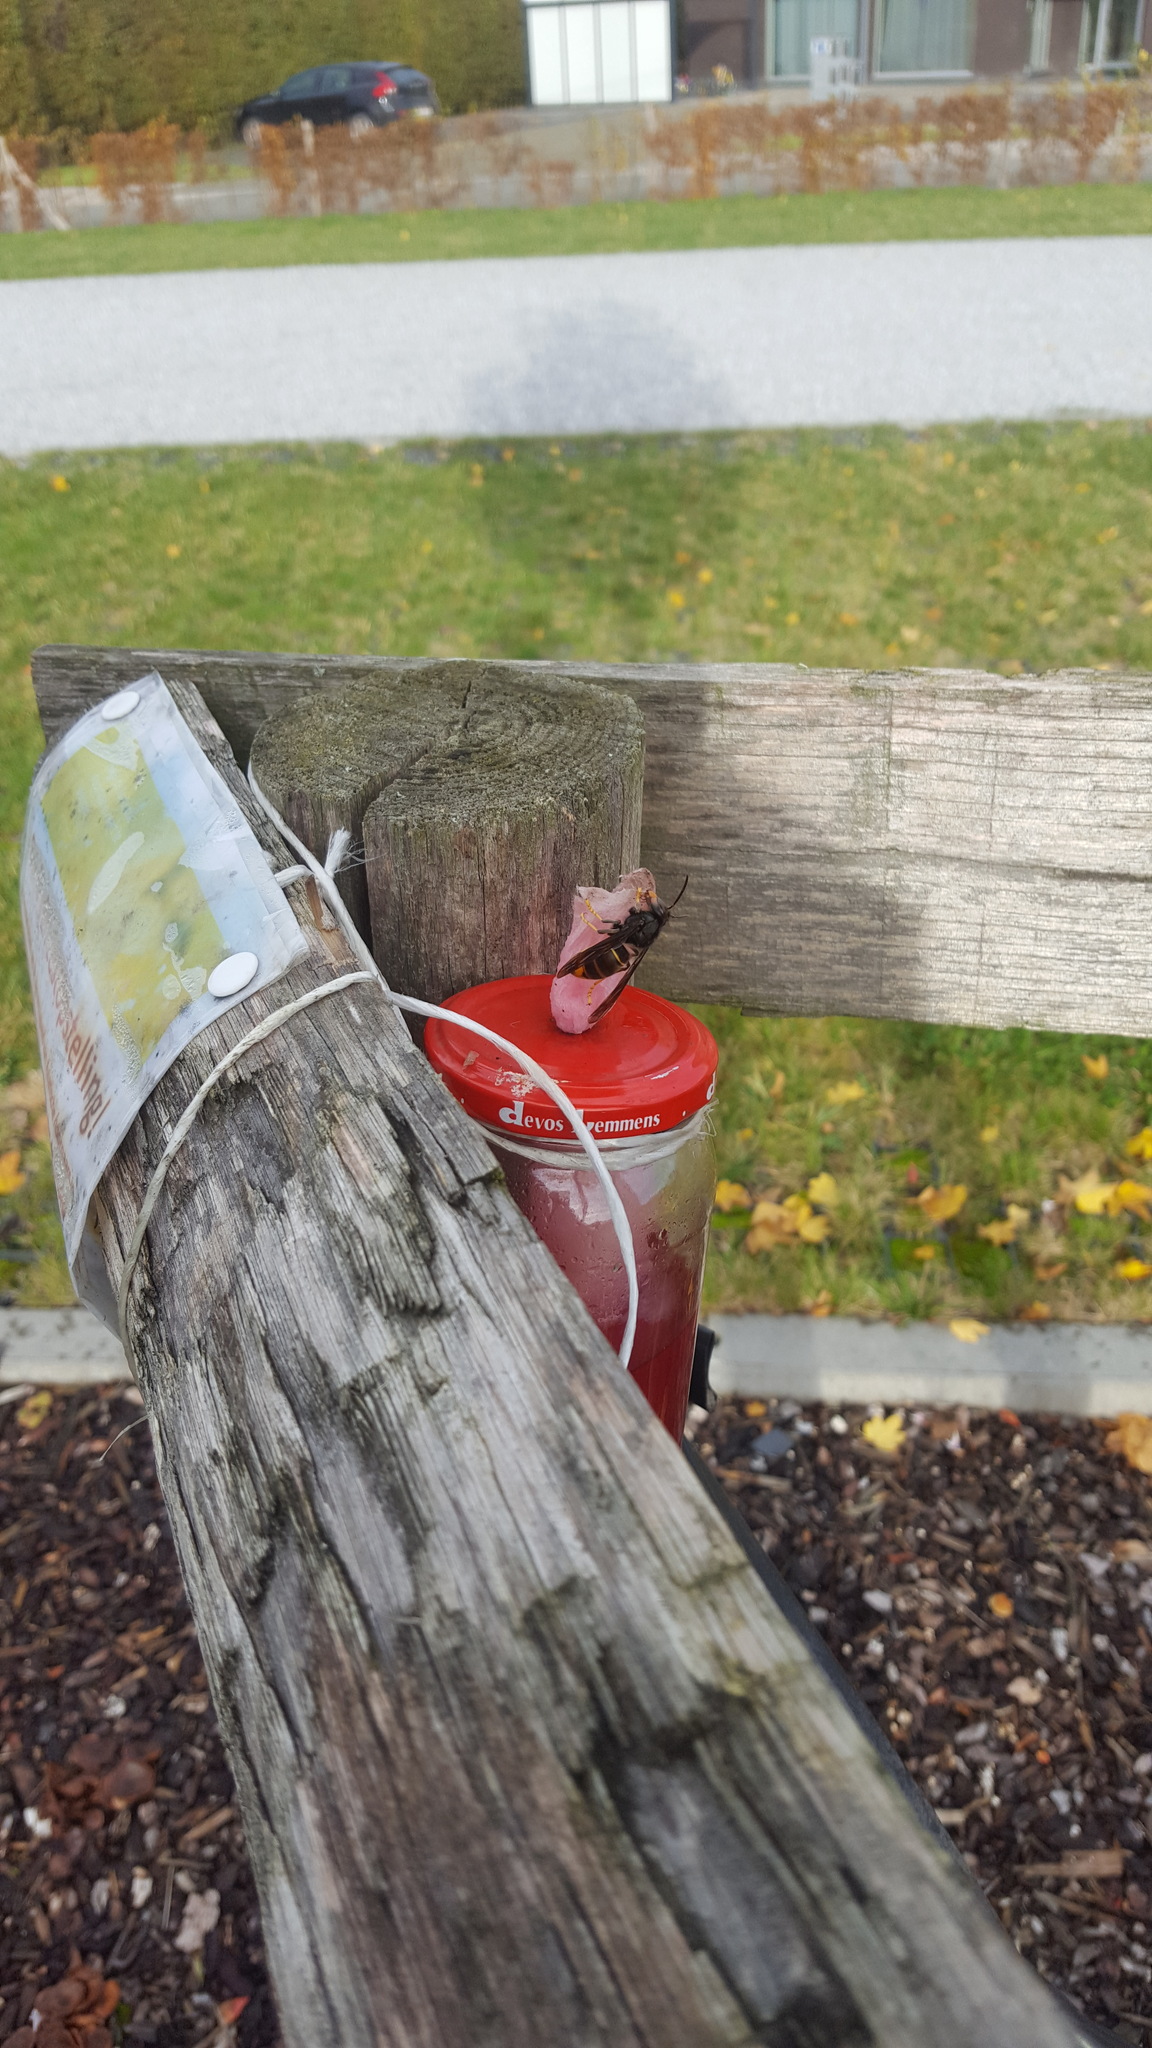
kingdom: Animalia
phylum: Arthropoda
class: Insecta
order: Hymenoptera
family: Vespidae
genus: Vespa
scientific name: Vespa velutina
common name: Asian hornet
